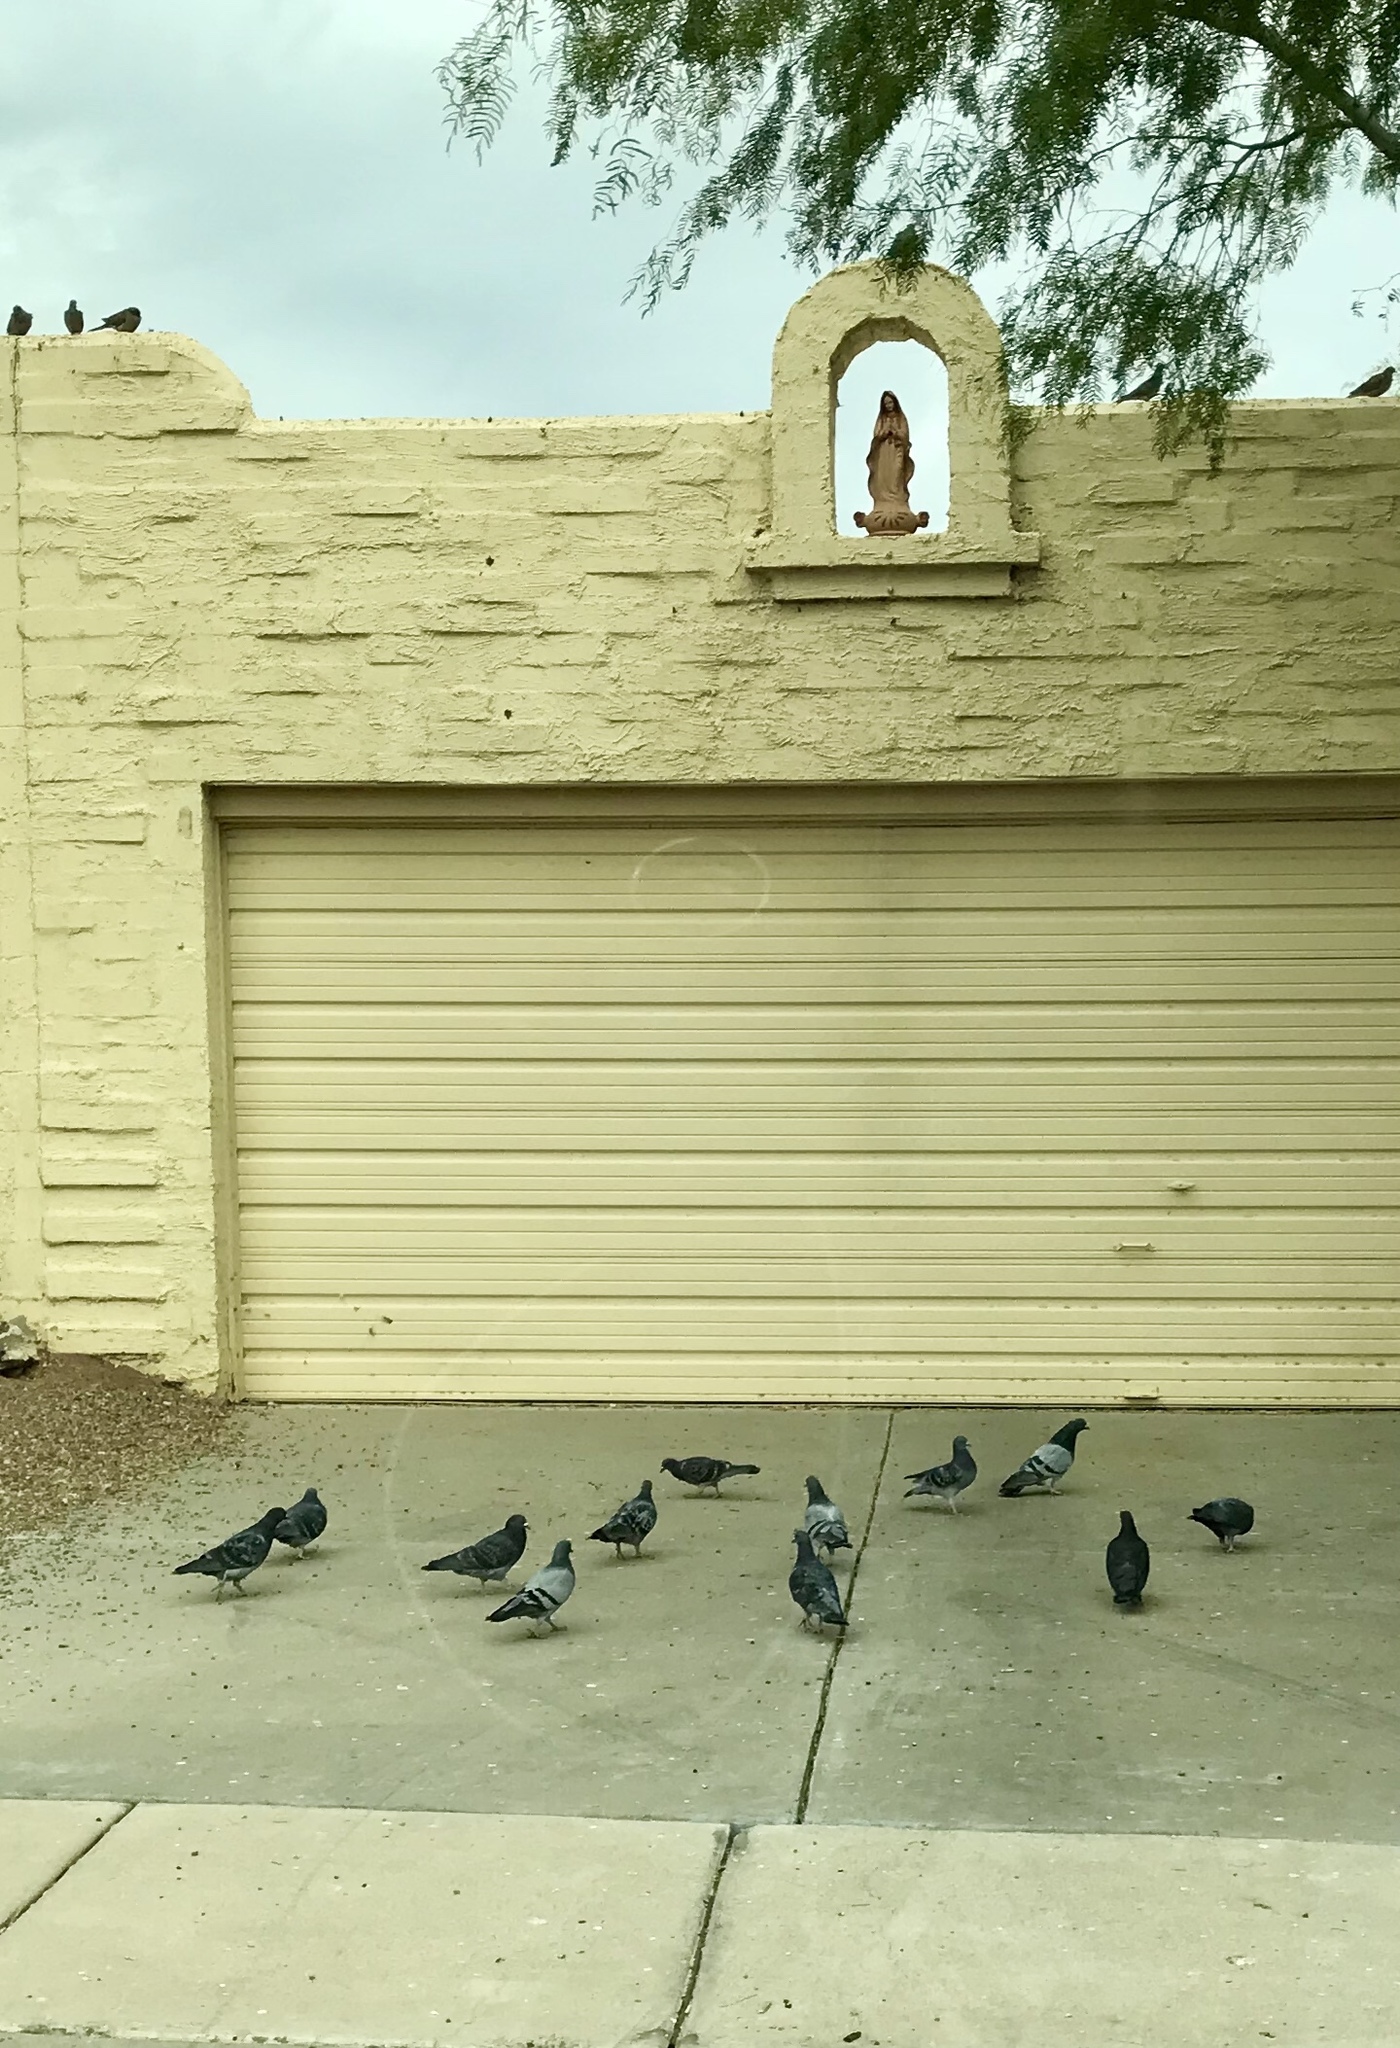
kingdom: Animalia
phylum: Chordata
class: Aves
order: Columbiformes
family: Columbidae
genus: Columba
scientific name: Columba livia
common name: Rock pigeon
